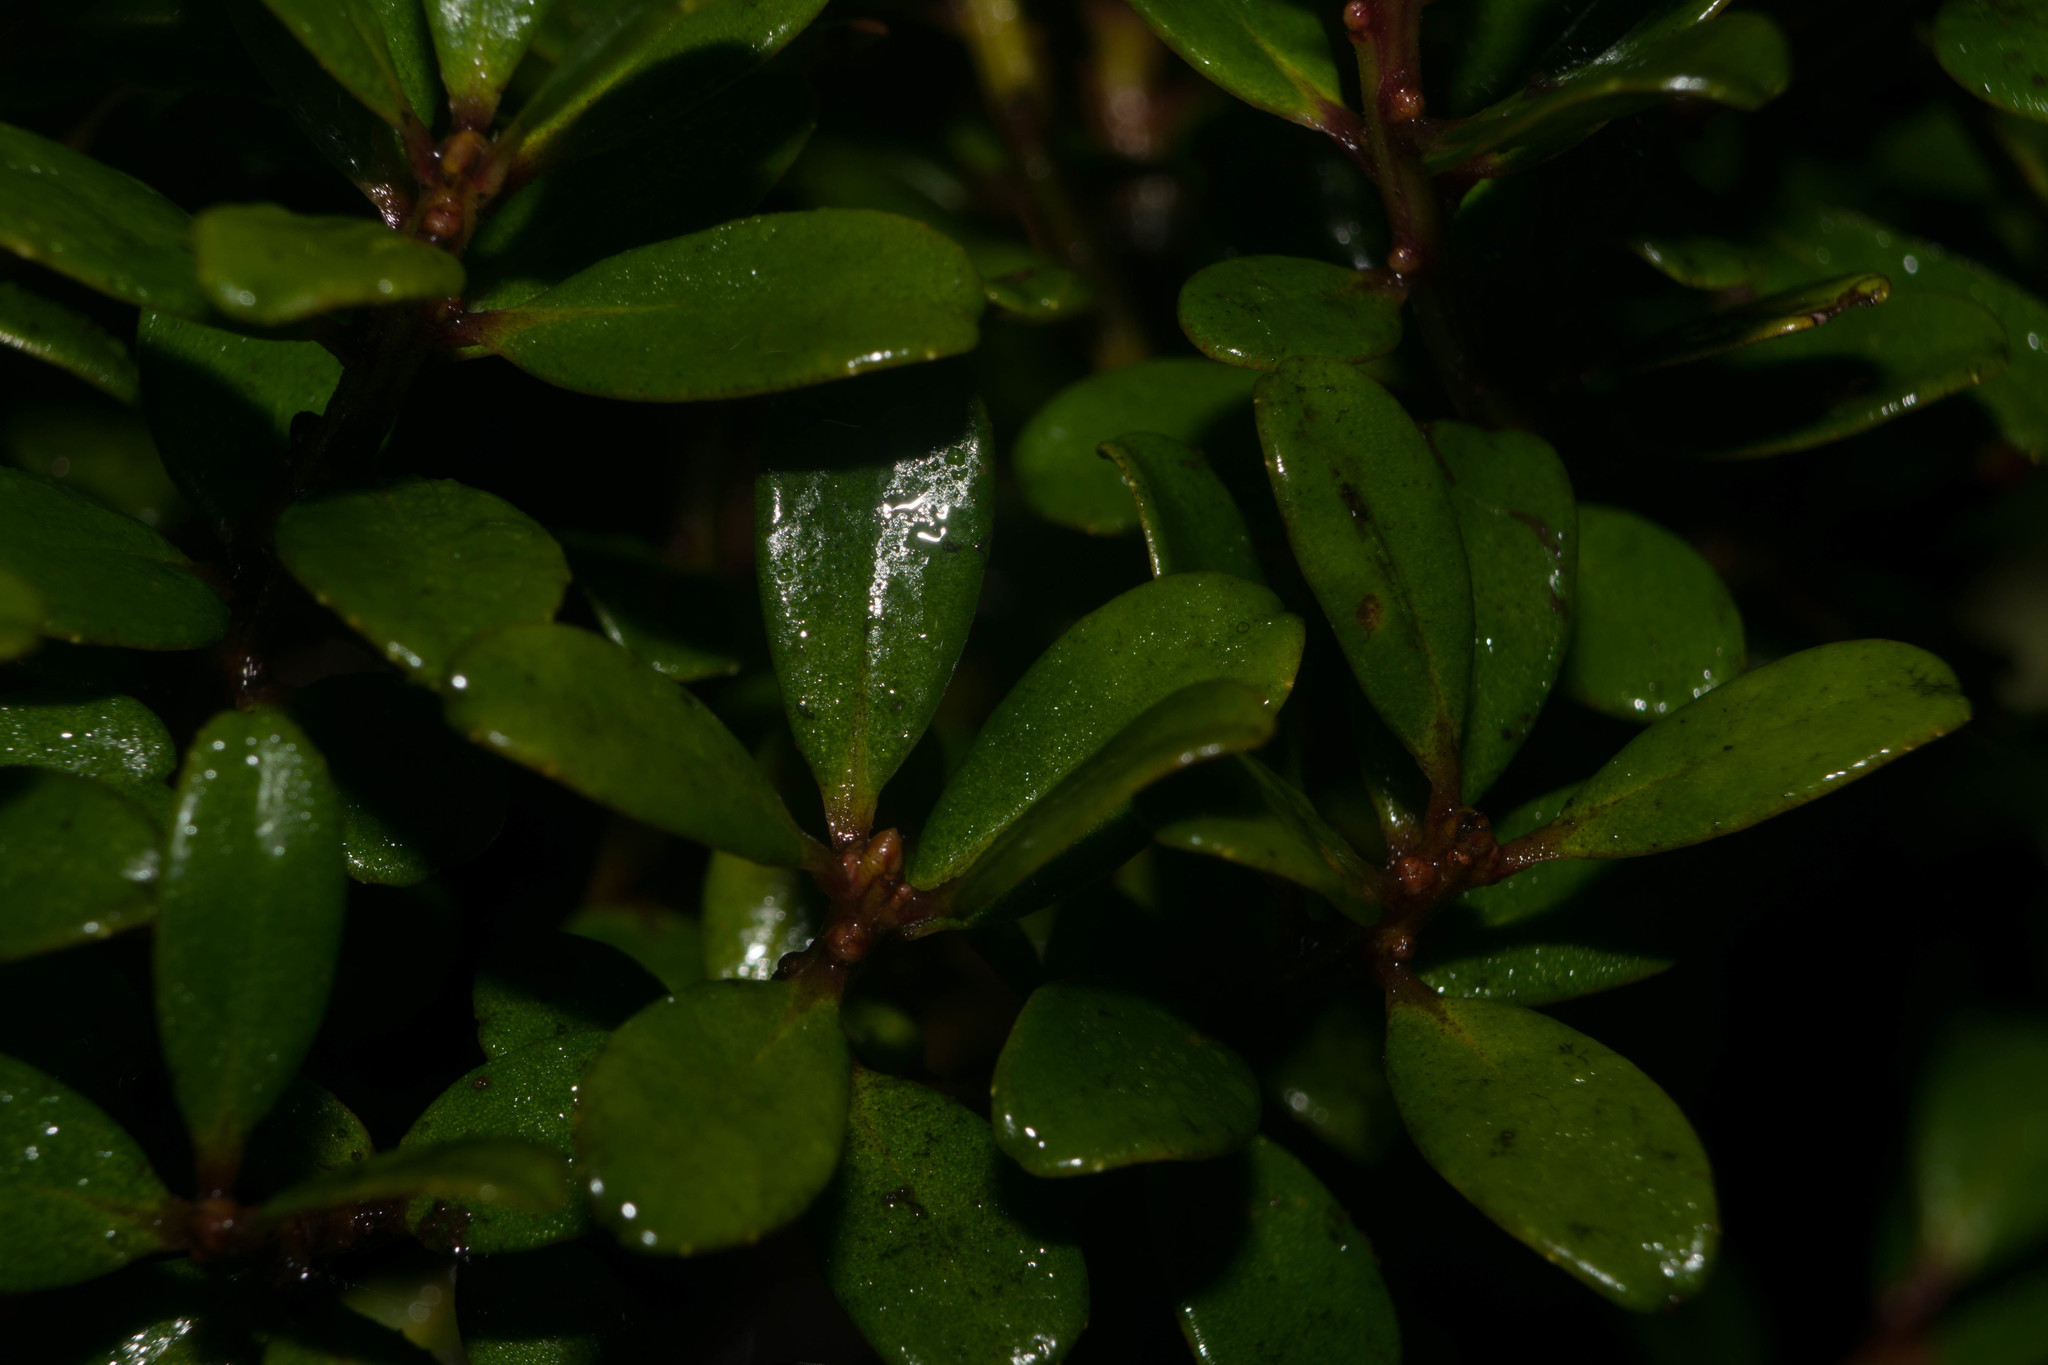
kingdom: Plantae
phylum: Tracheophyta
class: Magnoliopsida
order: Ericales
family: Primulaceae
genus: Myrsine
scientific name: Myrsine sandwicensis
